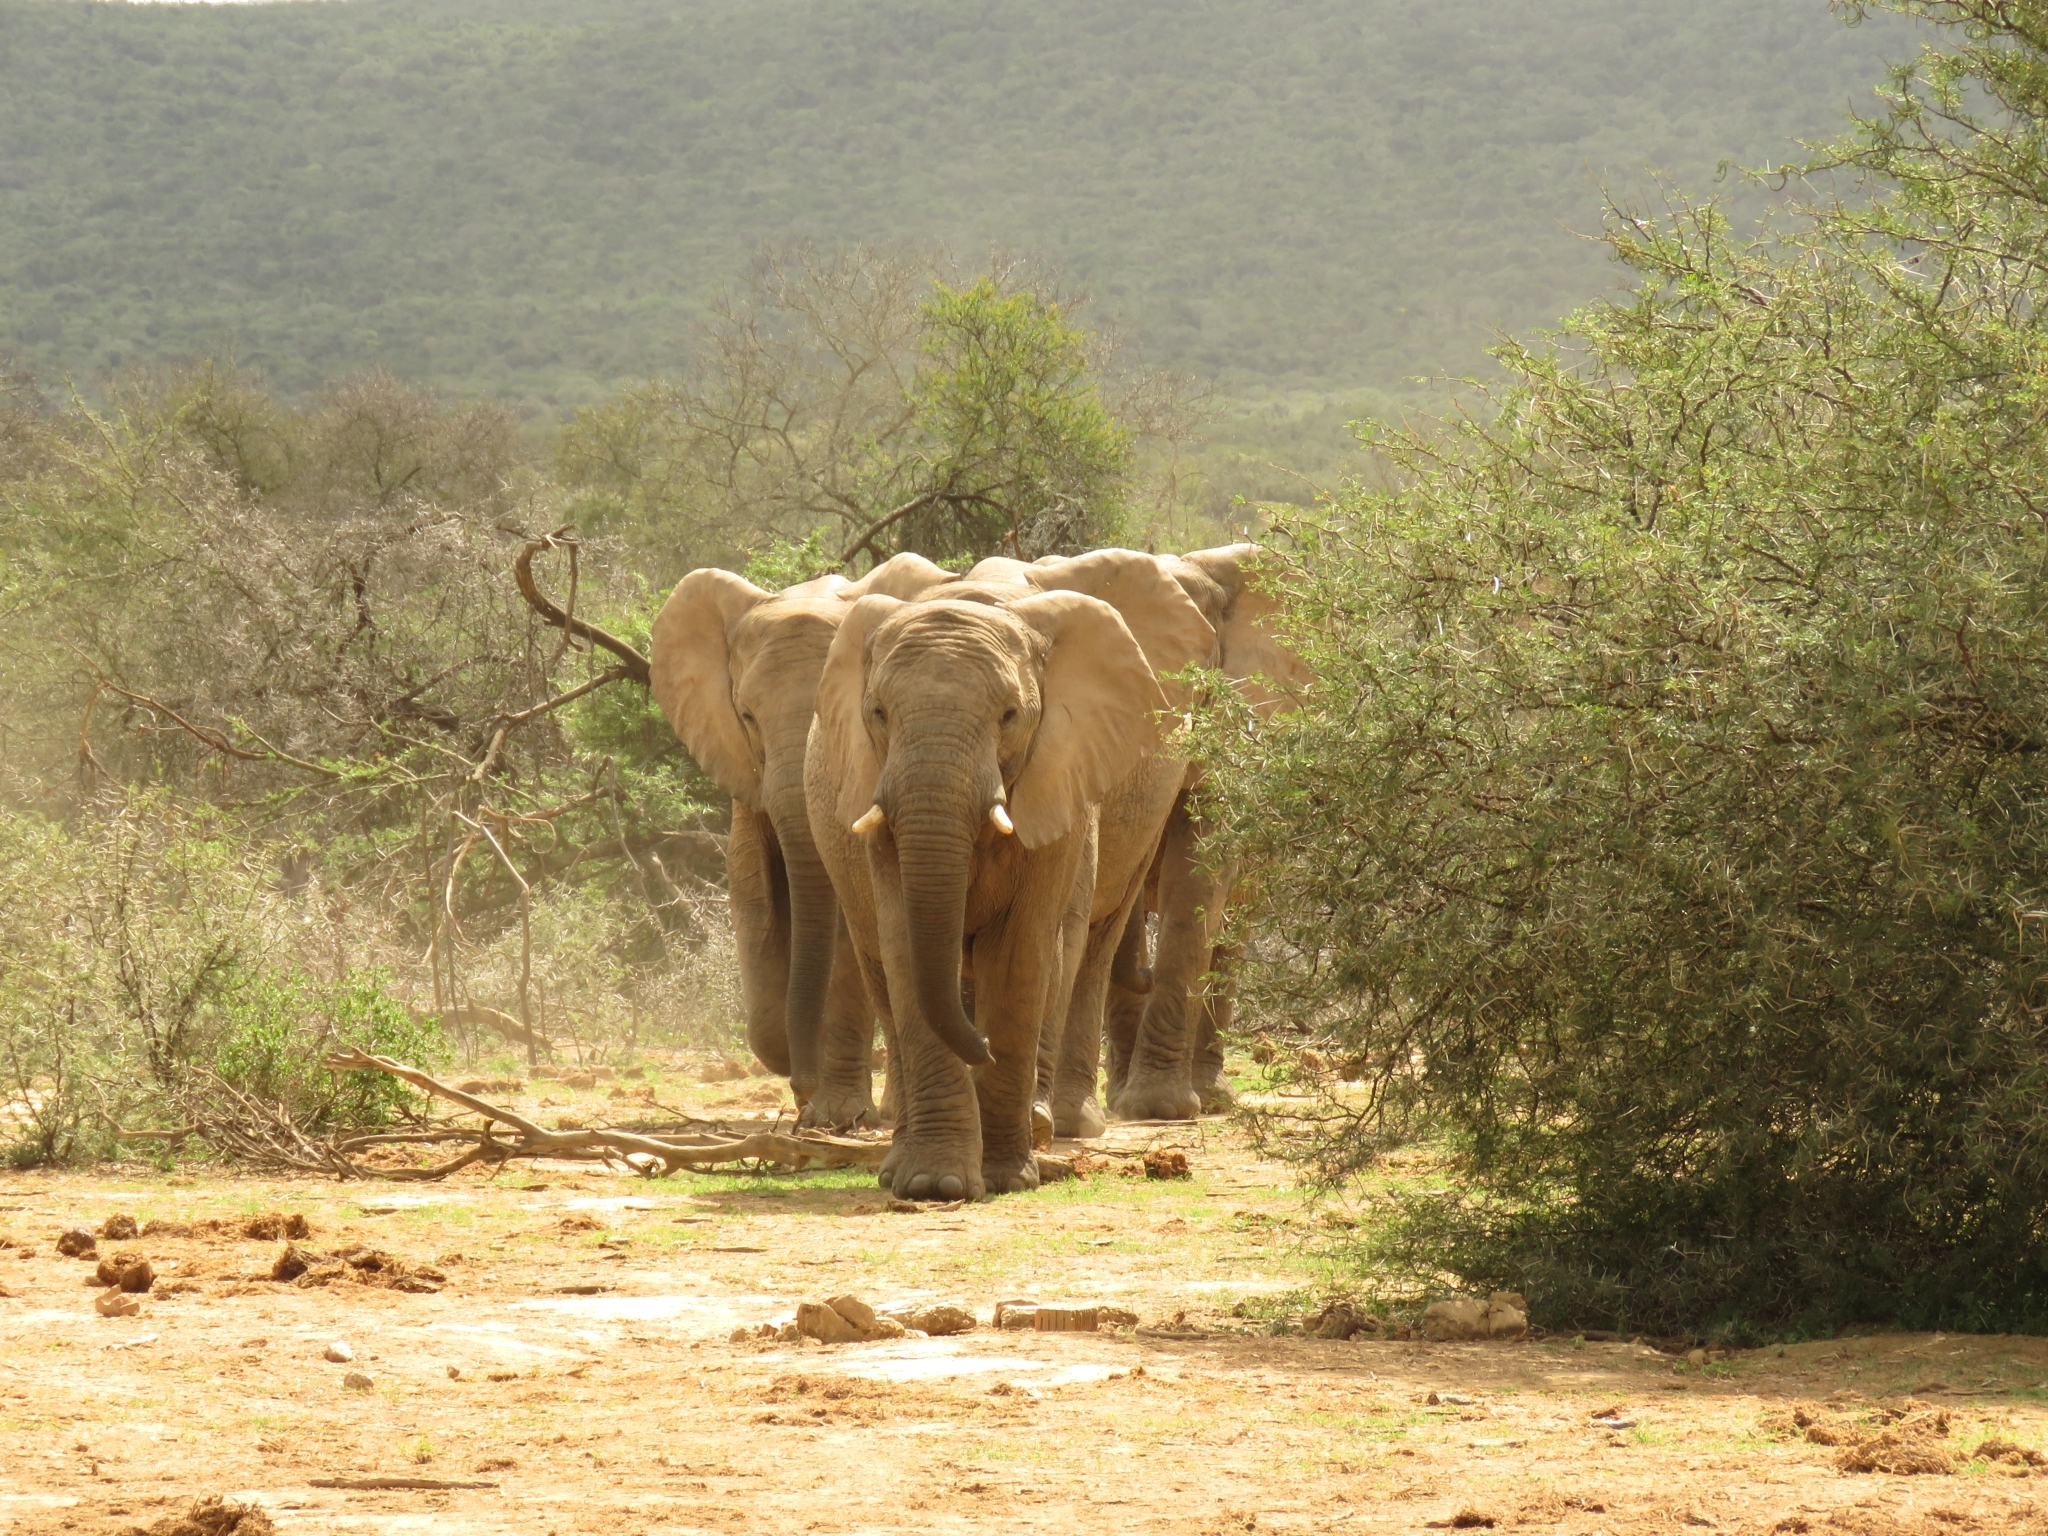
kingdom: Animalia
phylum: Chordata
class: Mammalia
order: Proboscidea
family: Elephantidae
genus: Loxodonta
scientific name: Loxodonta africana
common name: African elephant
